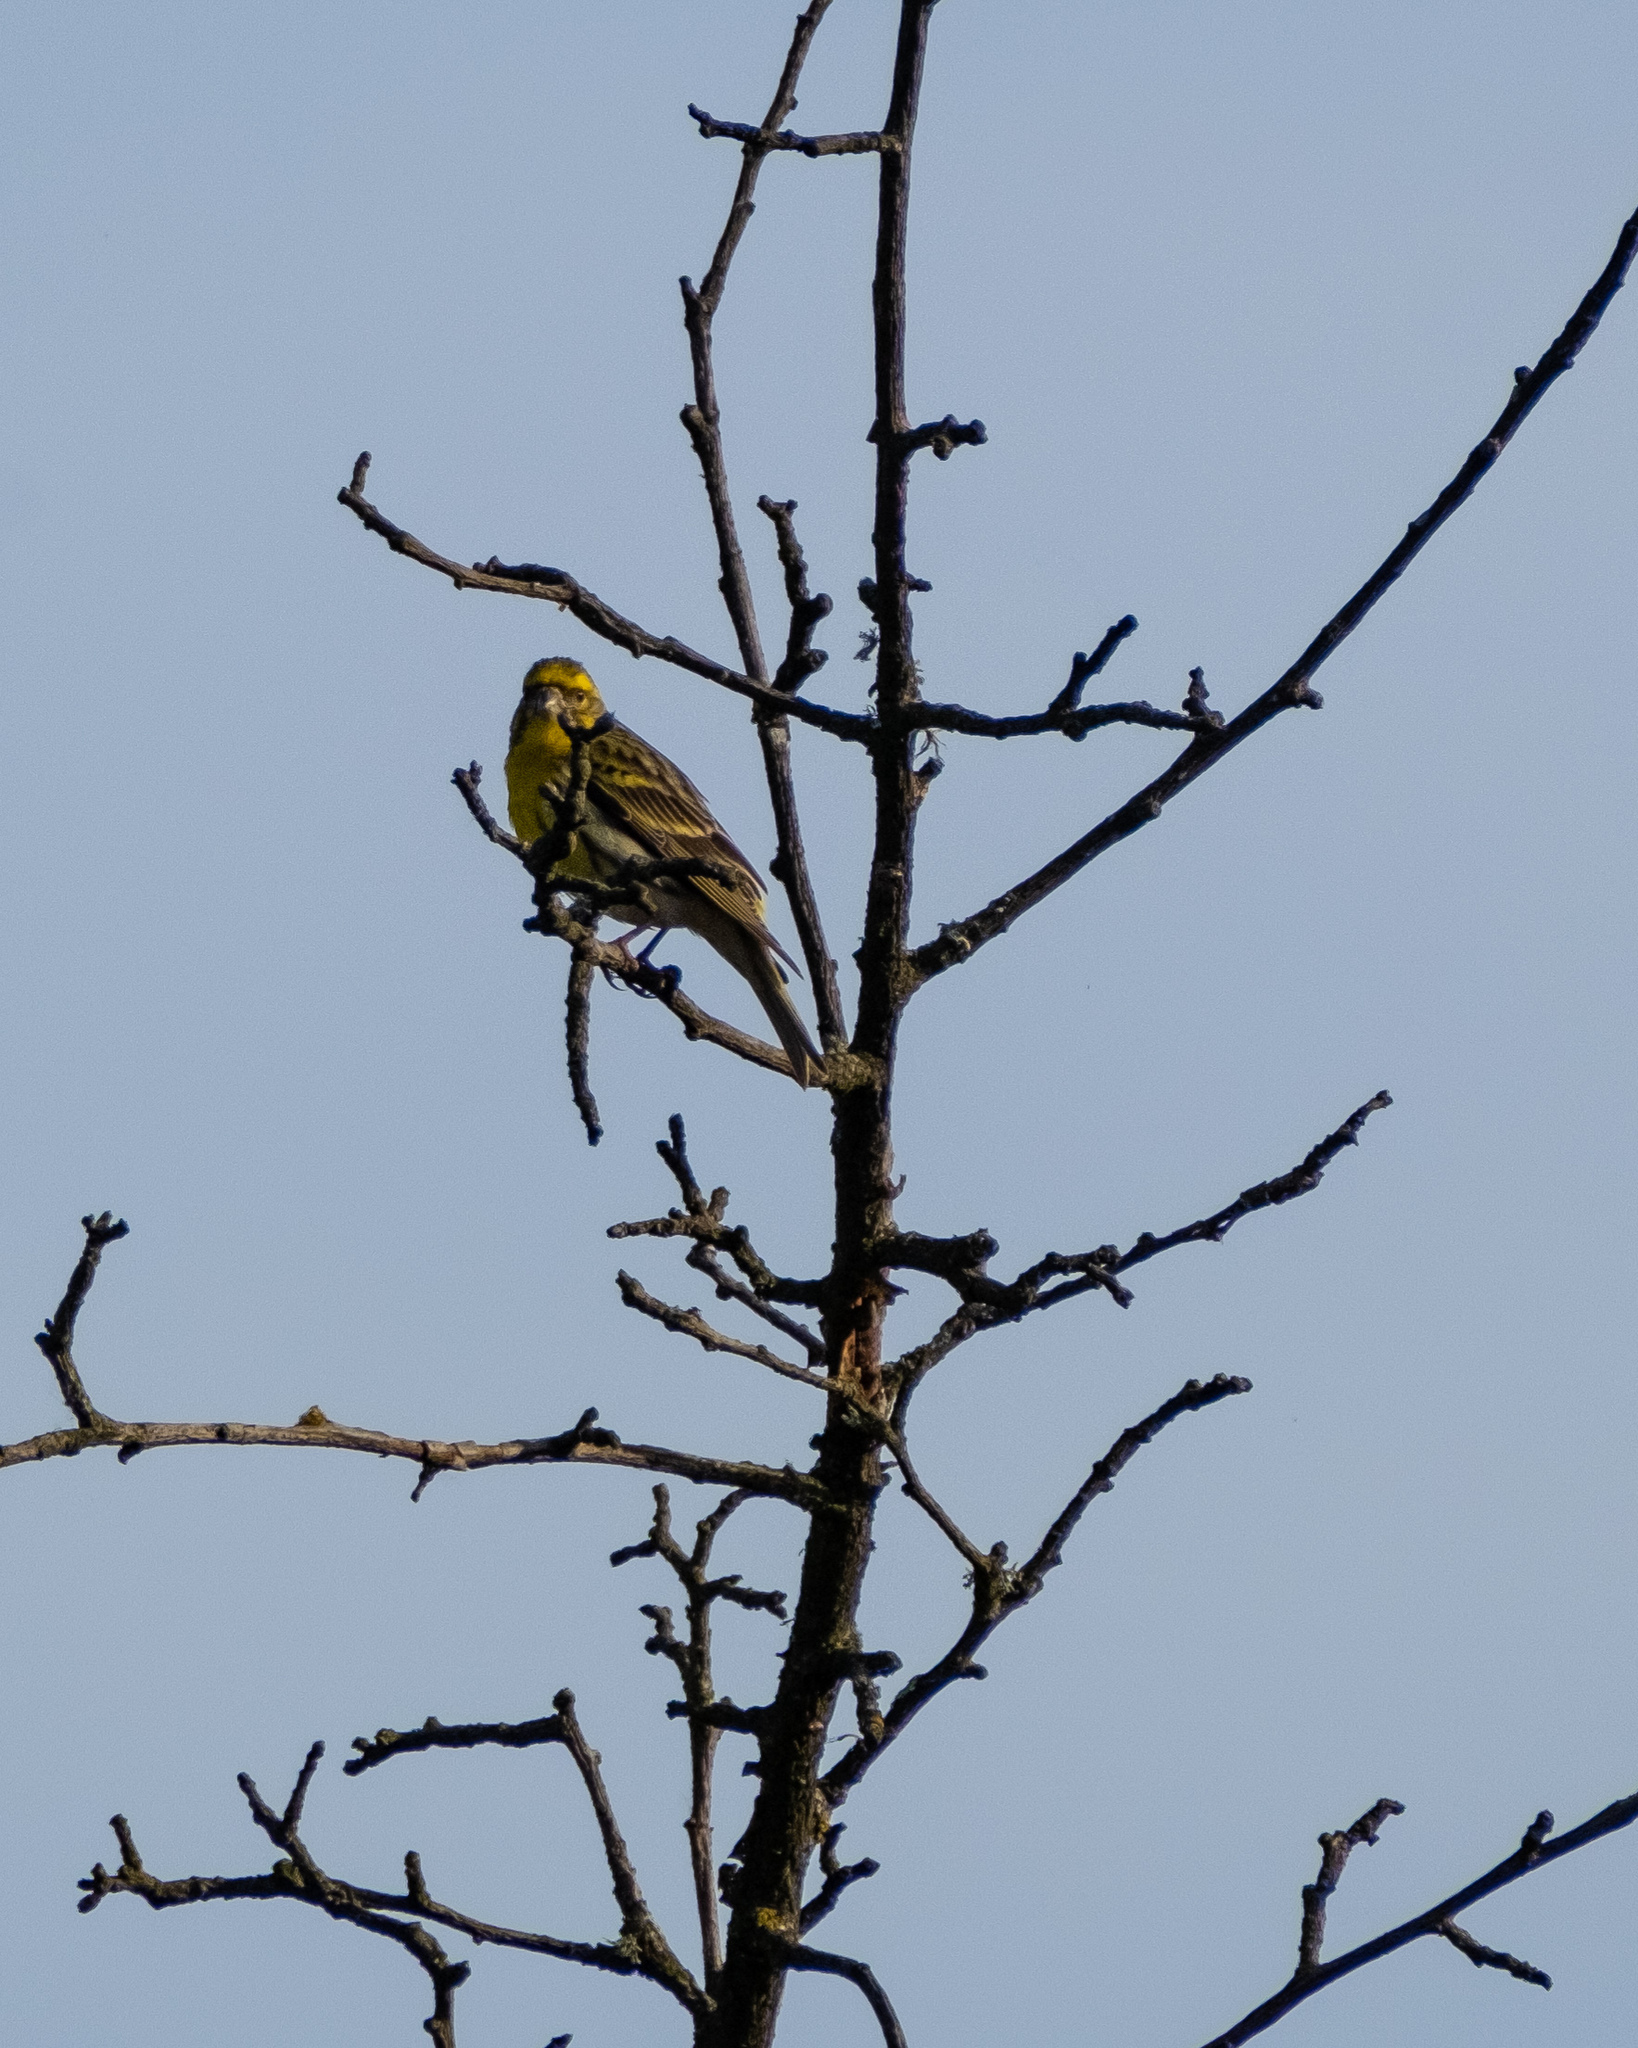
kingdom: Animalia
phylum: Chordata
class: Aves
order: Passeriformes
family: Fringillidae
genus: Serinus
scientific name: Serinus serinus
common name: European serin
